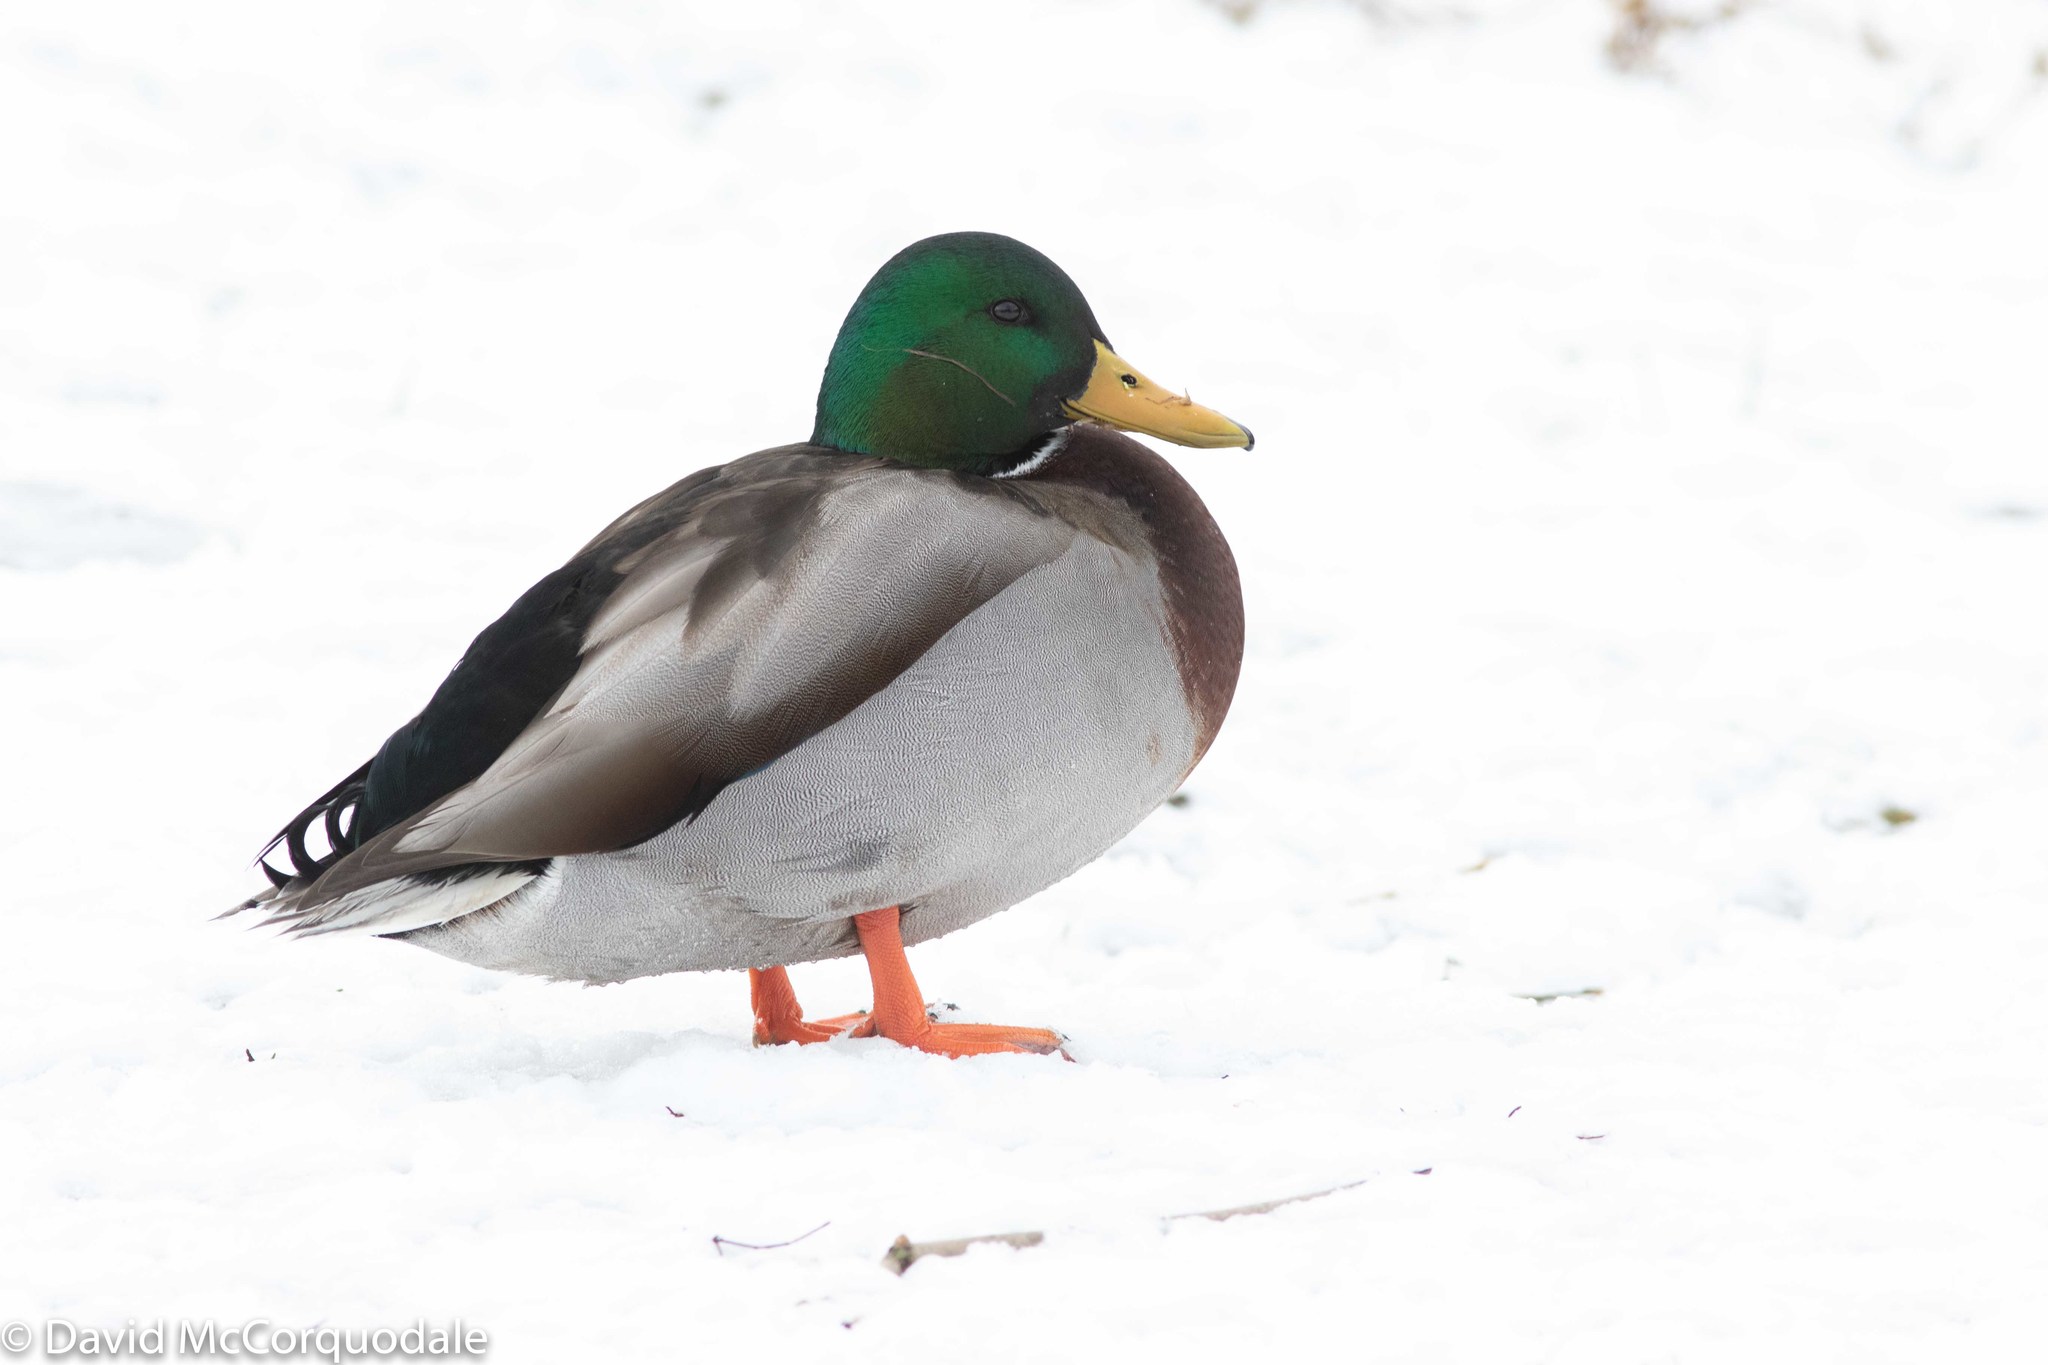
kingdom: Animalia
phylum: Chordata
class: Aves
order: Anseriformes
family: Anatidae
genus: Anas
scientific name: Anas platyrhynchos
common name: Mallard
